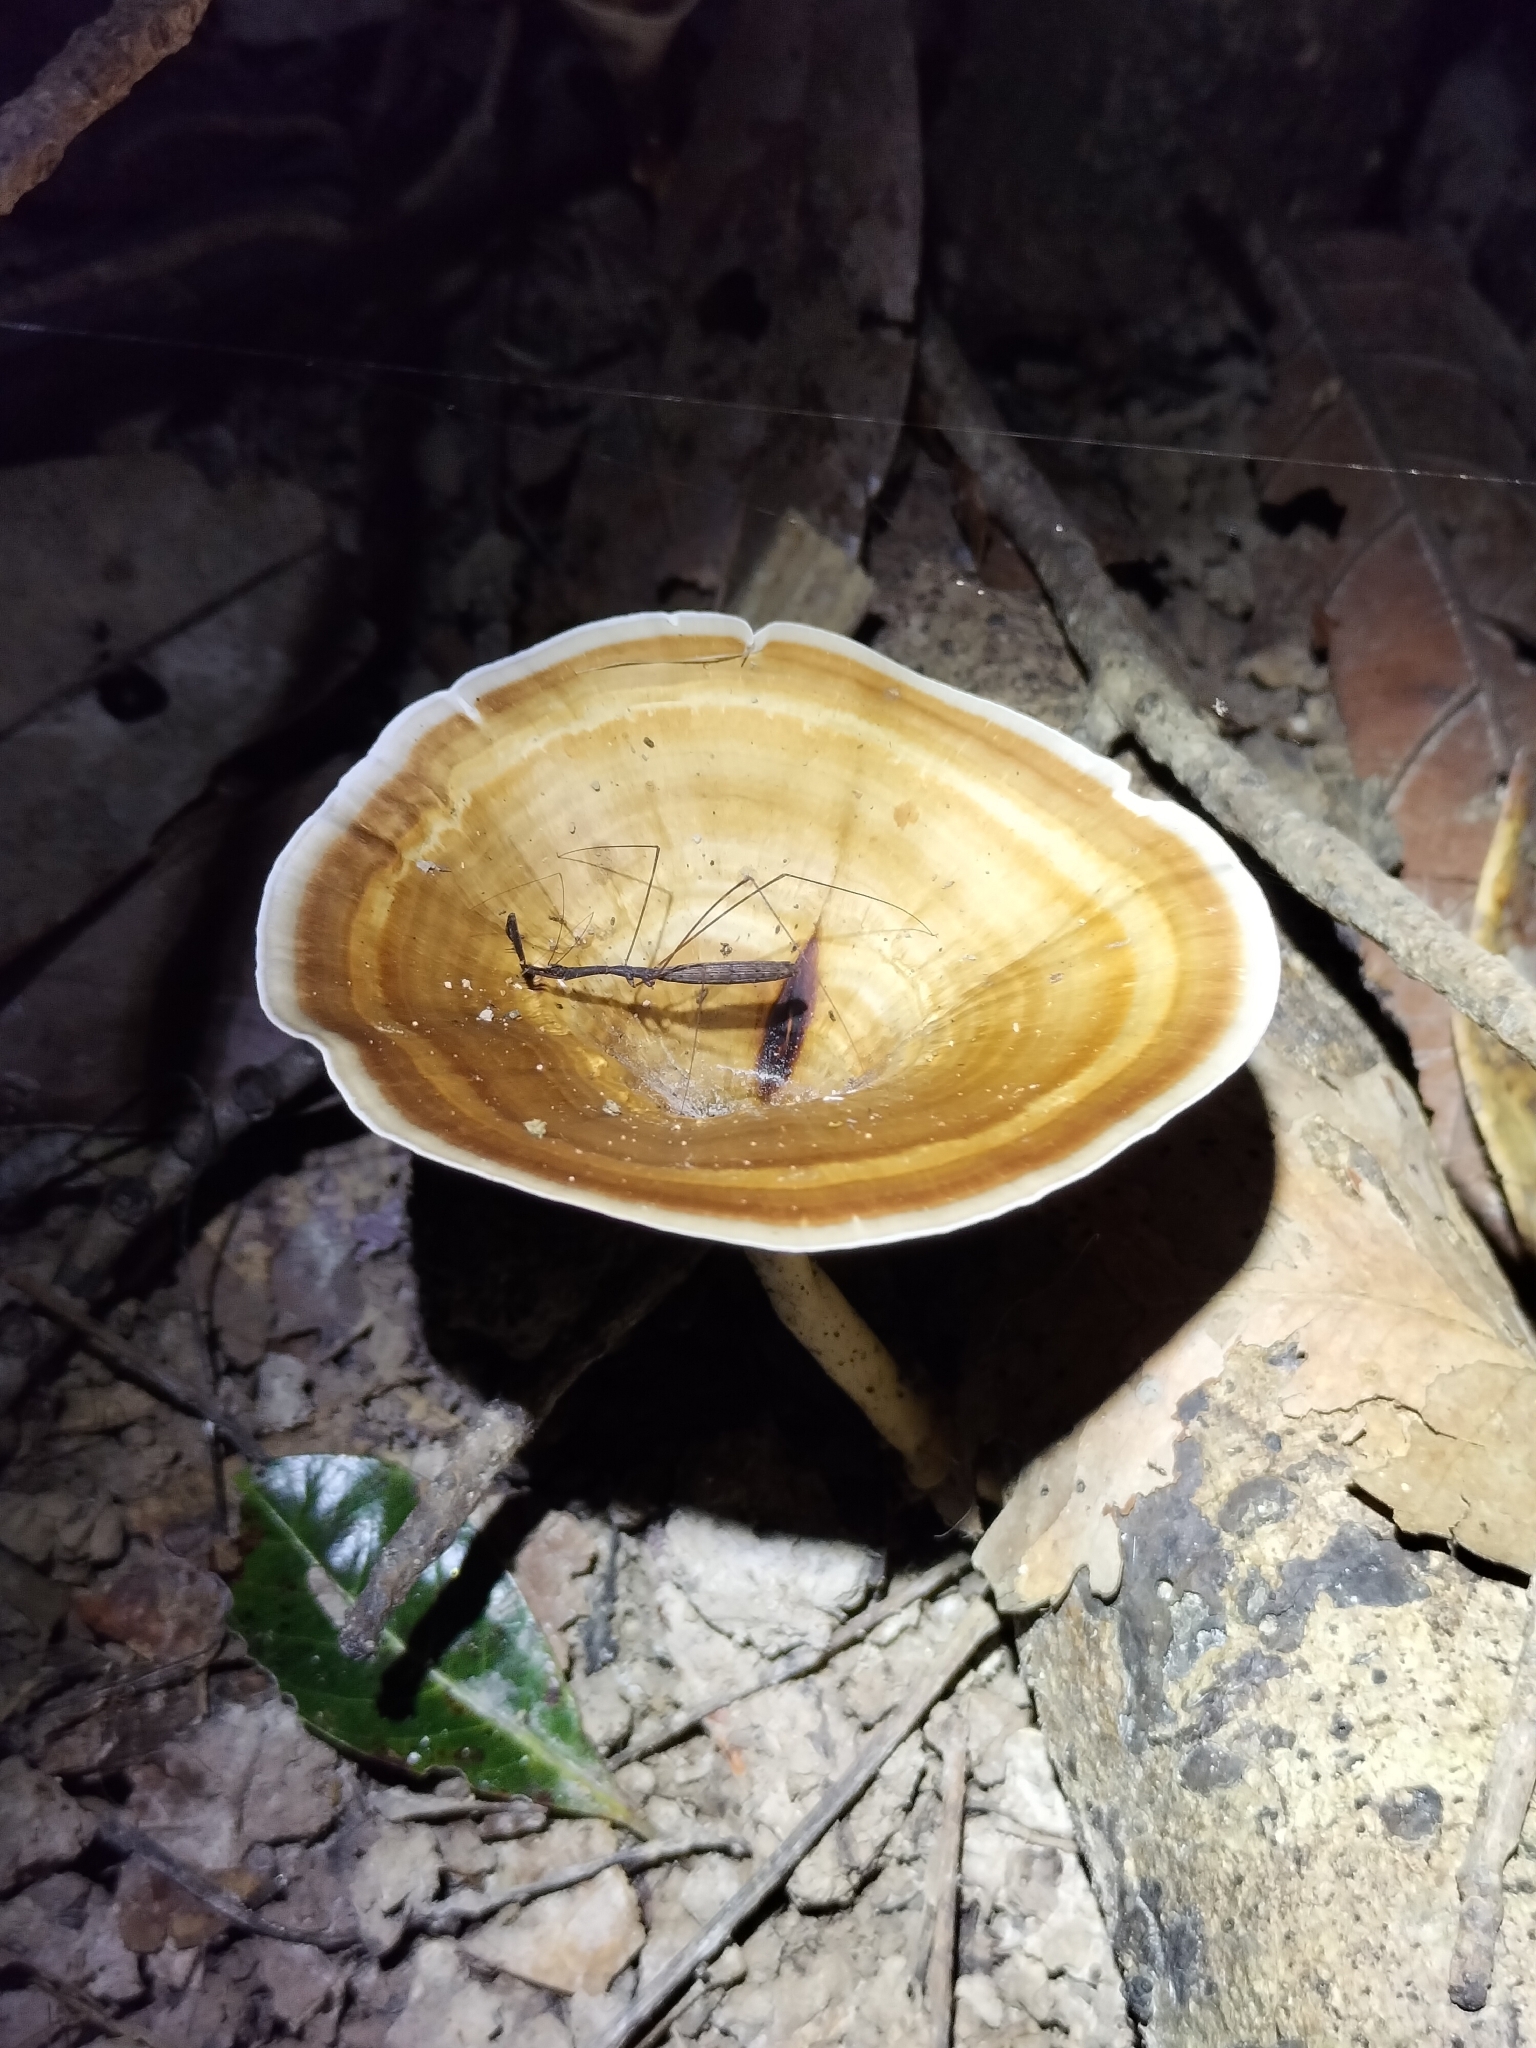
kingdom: Fungi
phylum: Basidiomycota
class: Agaricomycetes
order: Polyporales
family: Polyporaceae
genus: Microporus
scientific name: Microporus xanthopus
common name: Yellow-stemmed micropore
